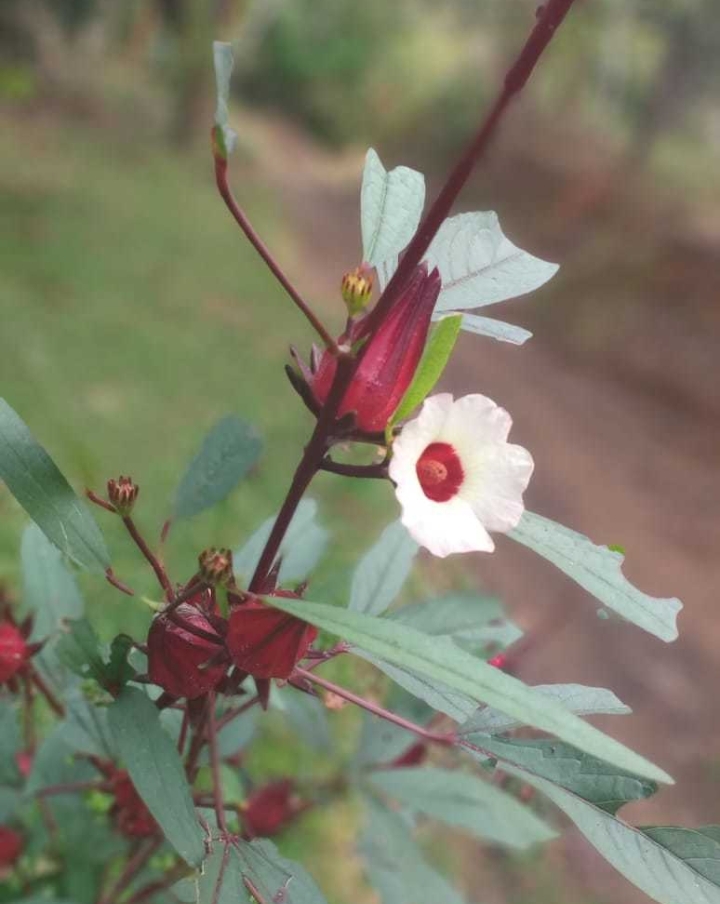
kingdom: Plantae
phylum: Tracheophyta
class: Magnoliopsida
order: Malvales
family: Malvaceae
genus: Hibiscus
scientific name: Hibiscus sabdariffa
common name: Roselle
